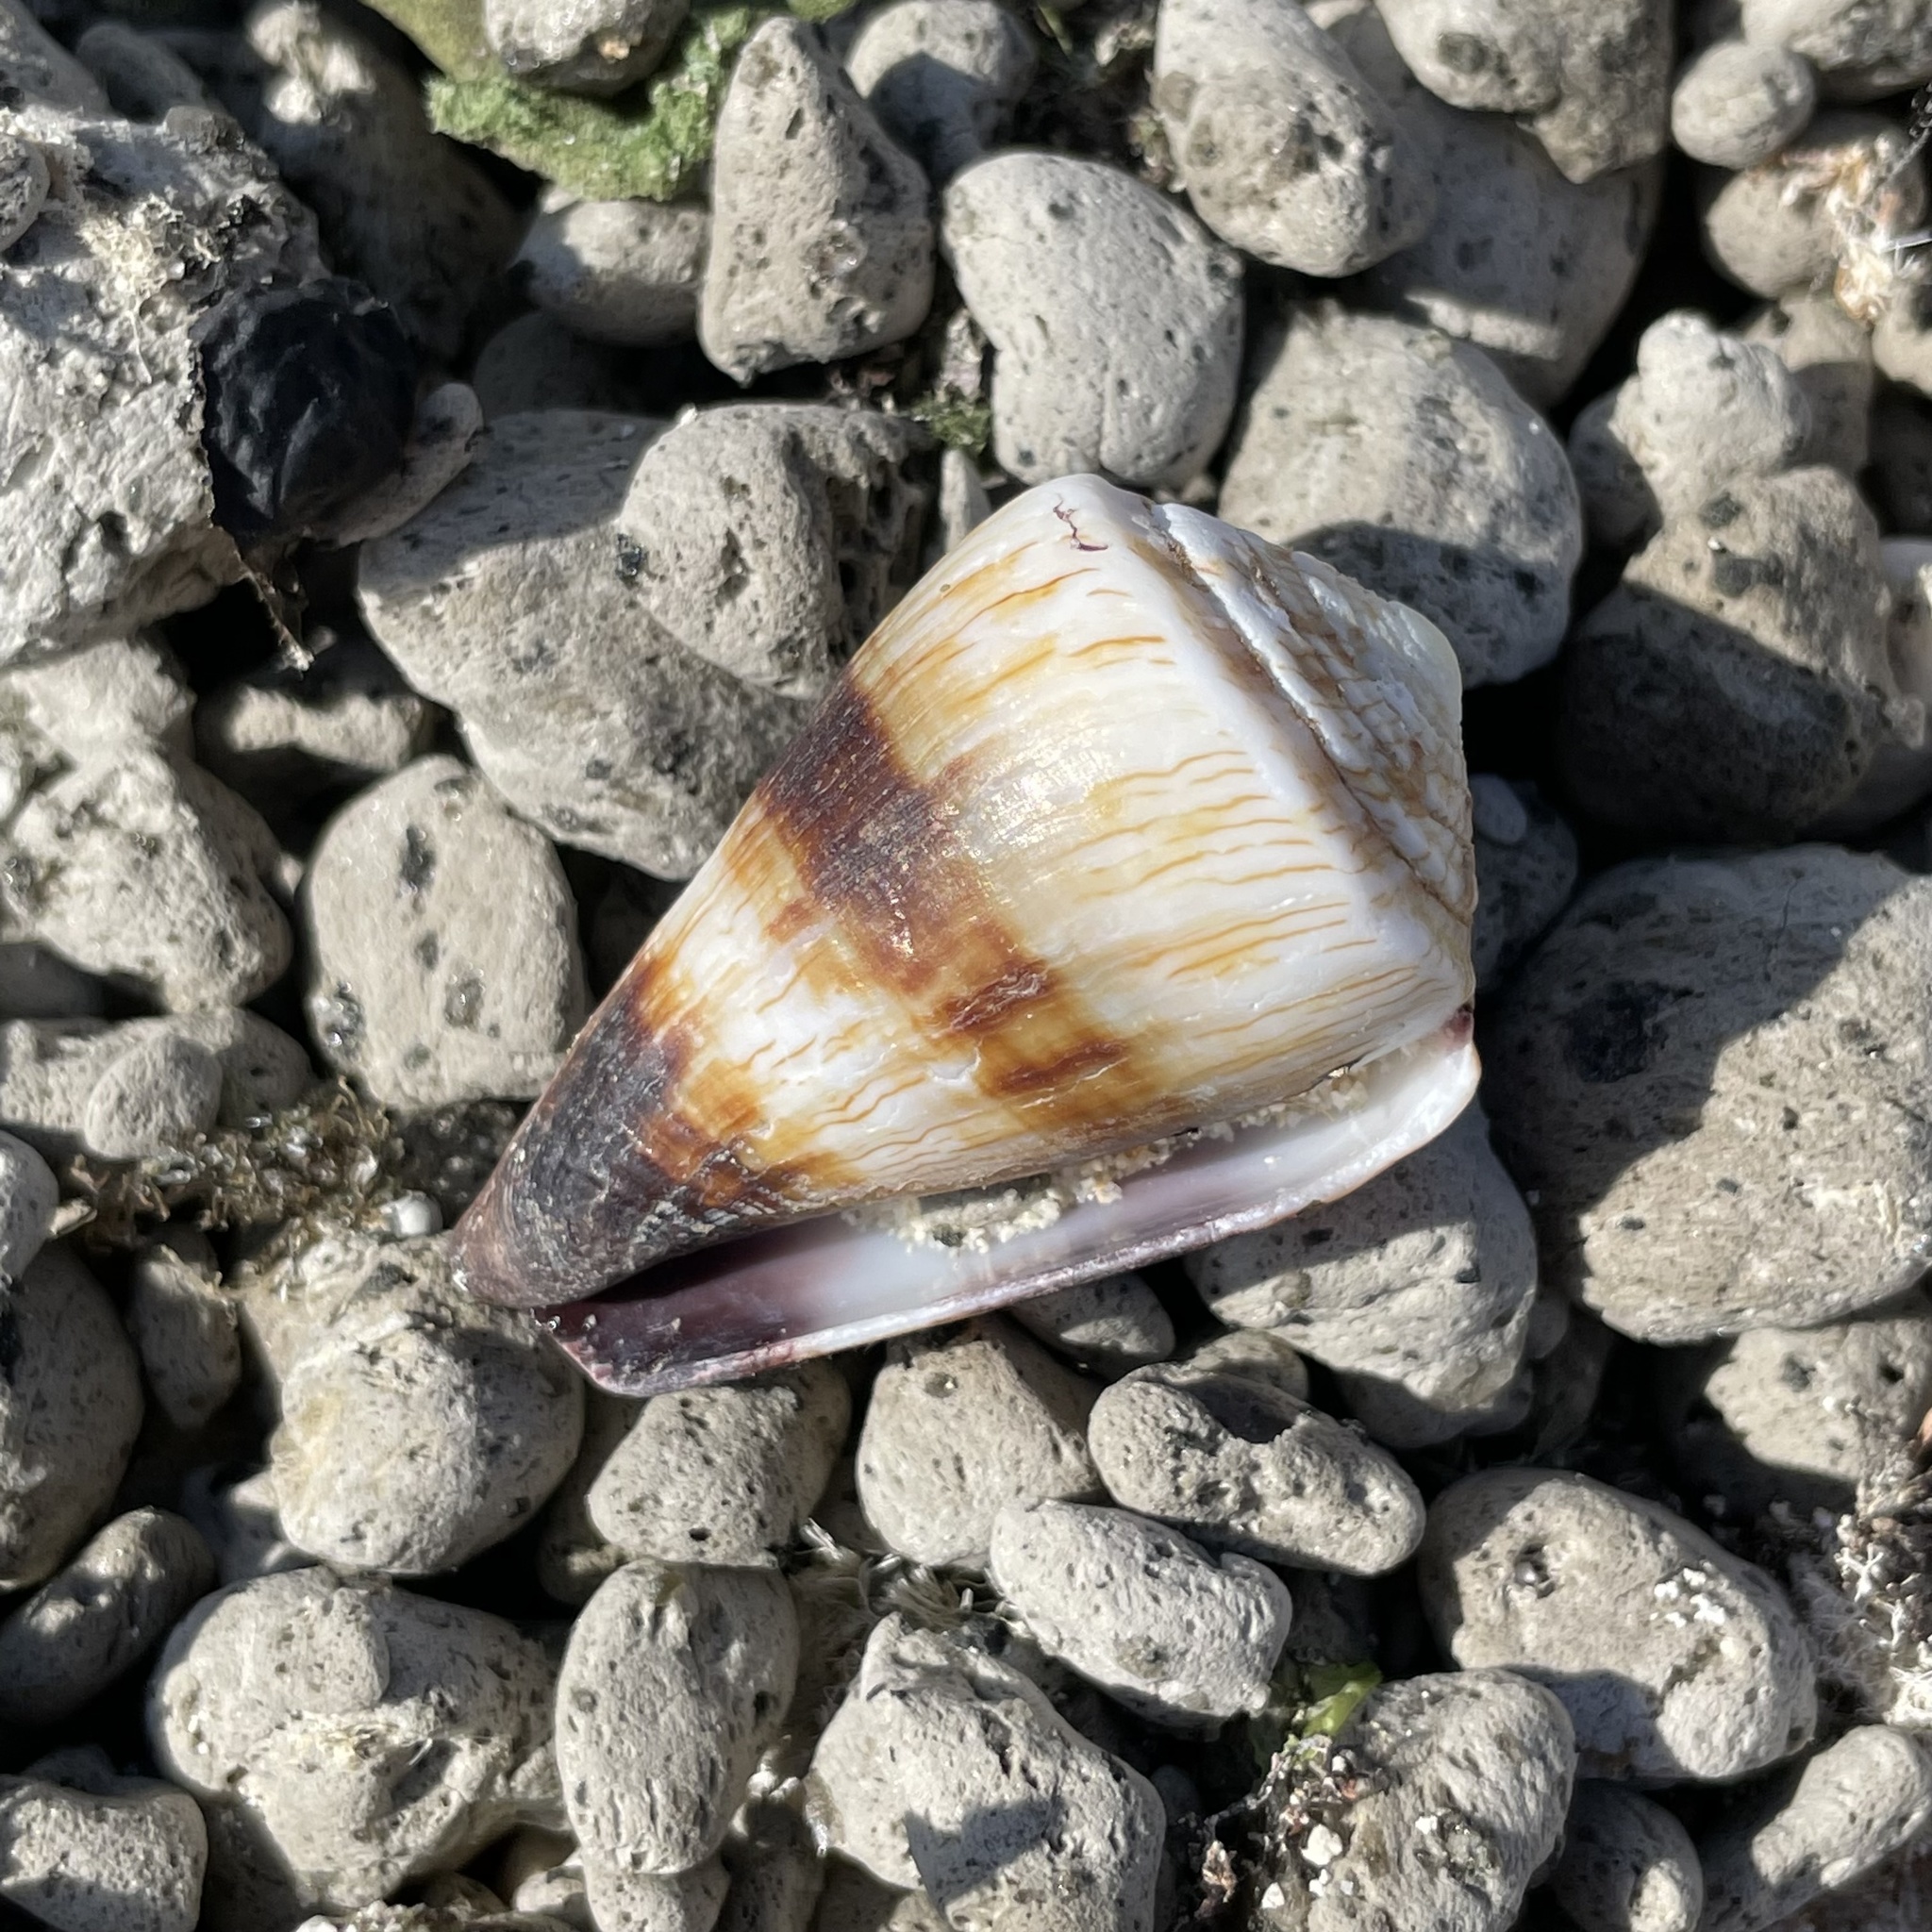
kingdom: Animalia
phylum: Mollusca
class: Gastropoda
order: Neogastropoda
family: Conidae
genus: Conus
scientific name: Conus miles
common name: Soldier cone
